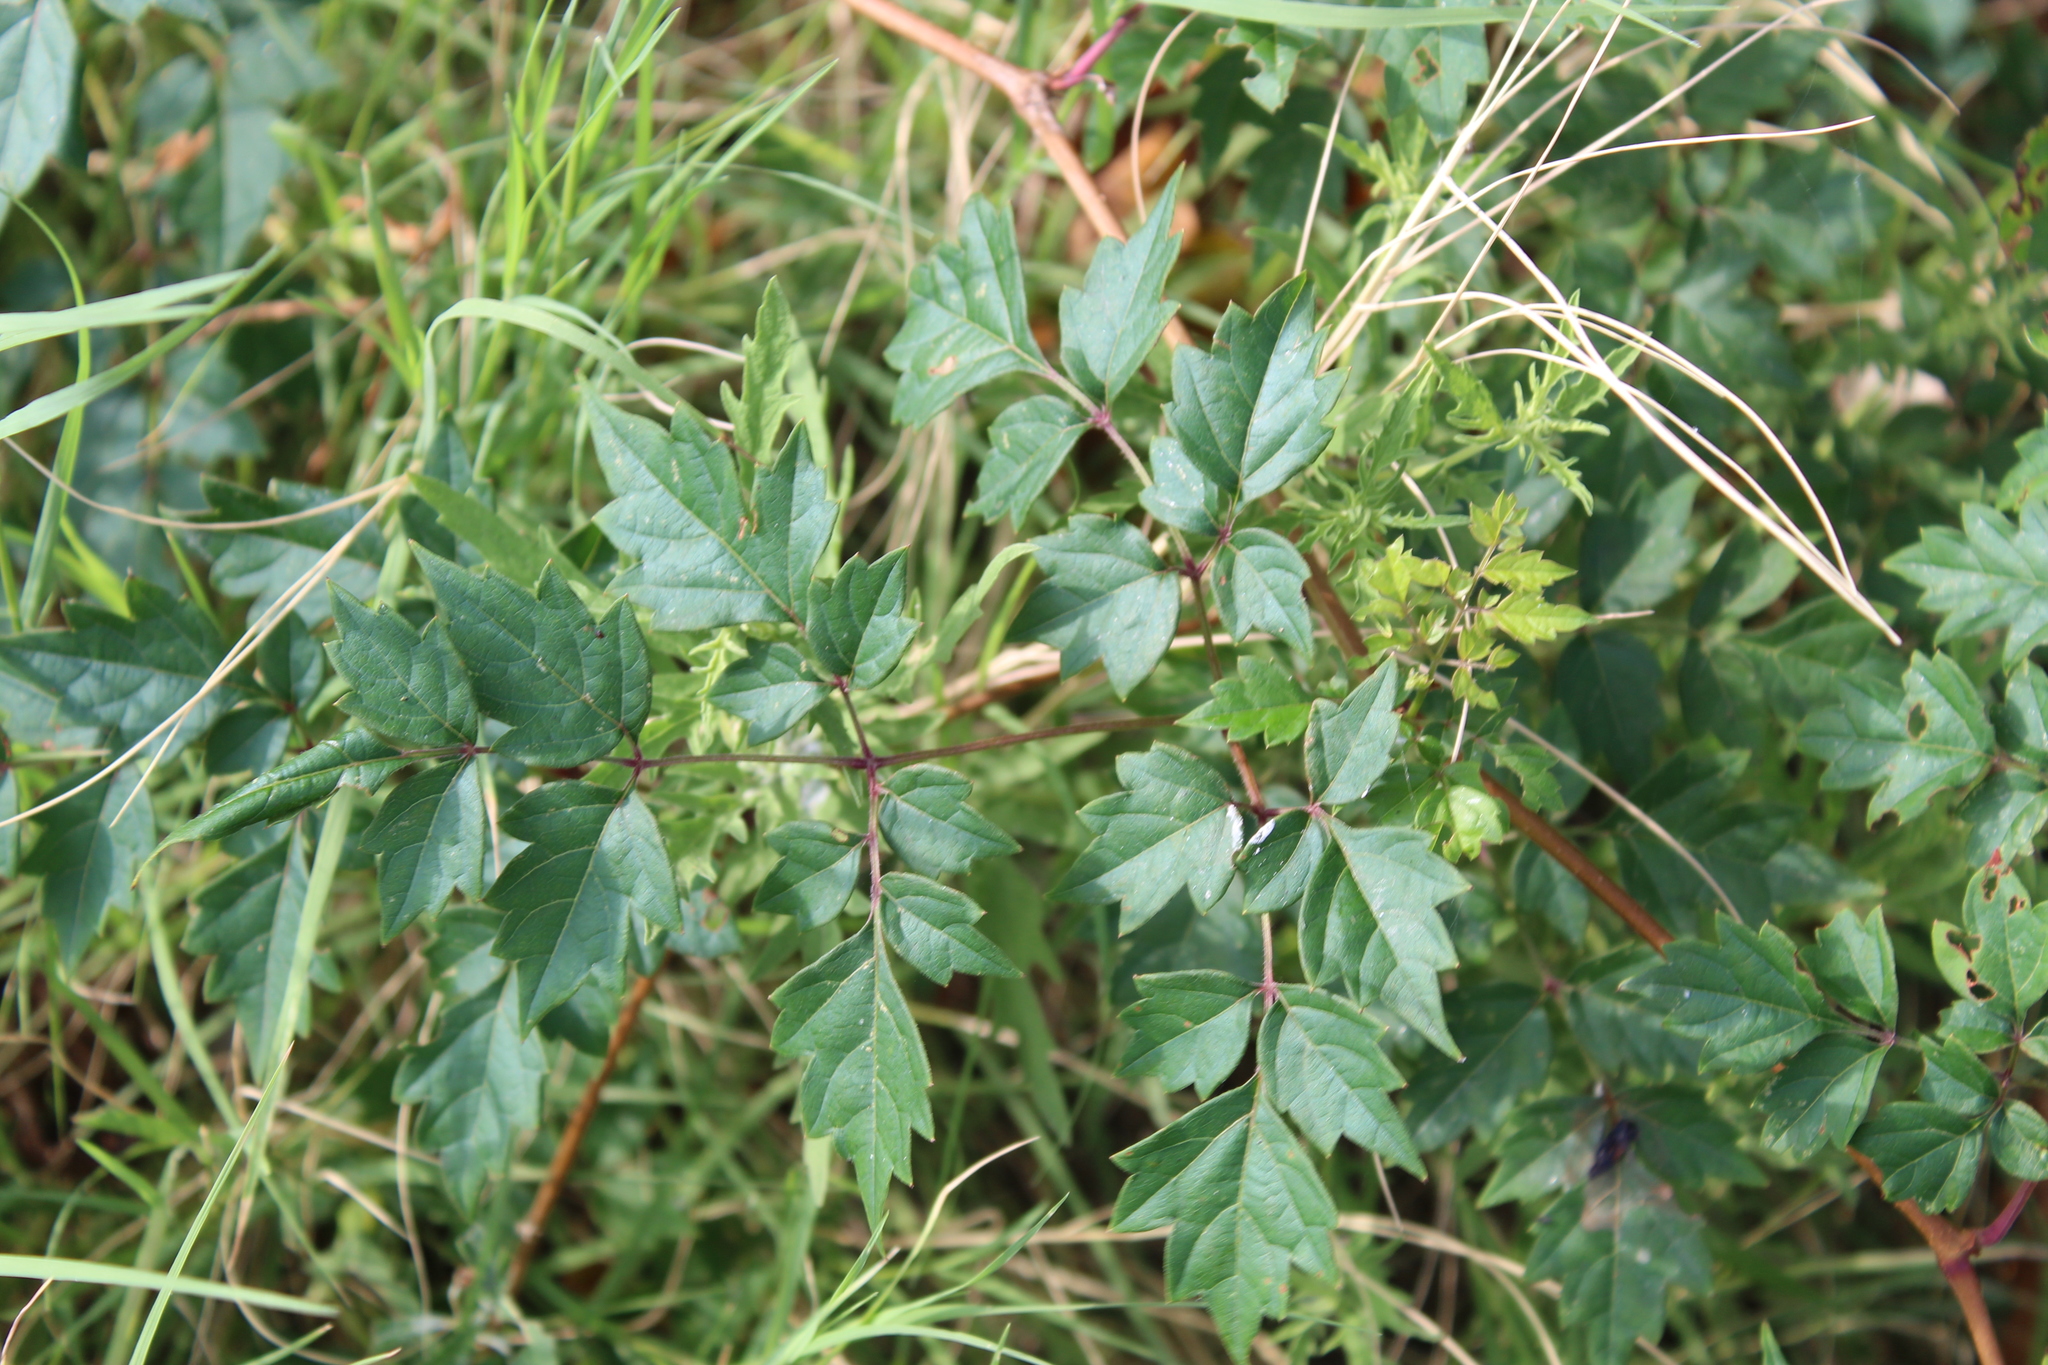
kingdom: Plantae
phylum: Tracheophyta
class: Magnoliopsida
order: Vitales
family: Vitaceae
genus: Nekemias
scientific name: Nekemias arborea
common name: Peppervine
